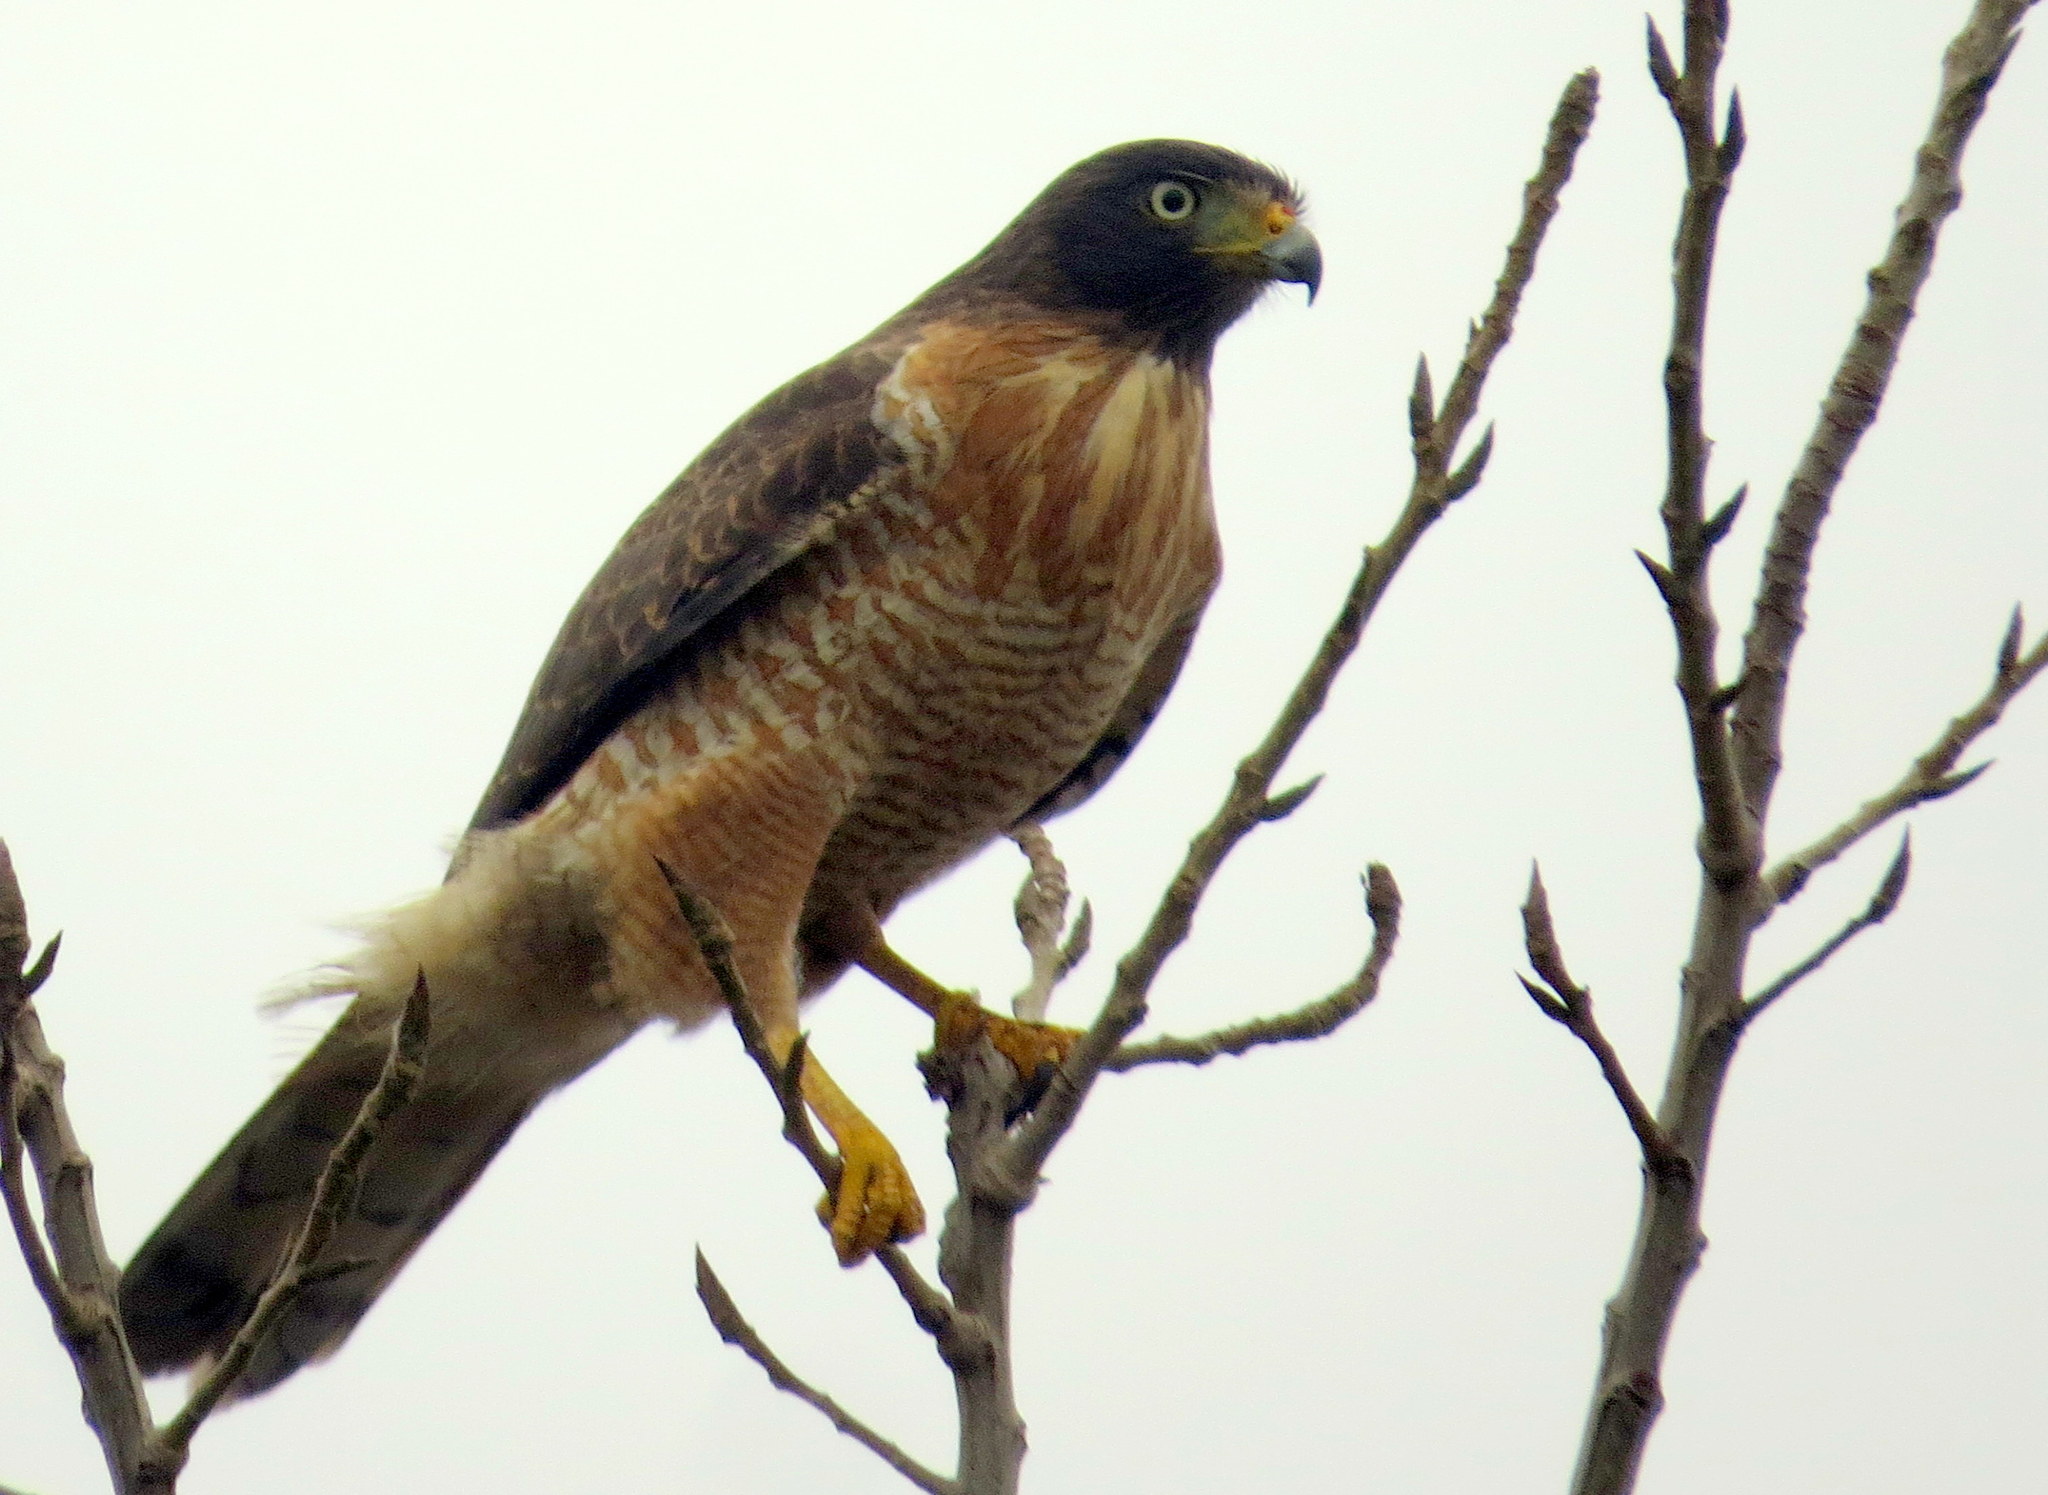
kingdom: Animalia
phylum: Chordata
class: Aves
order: Accipitriformes
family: Accipitridae
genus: Rupornis
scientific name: Rupornis magnirostris
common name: Roadside hawk
